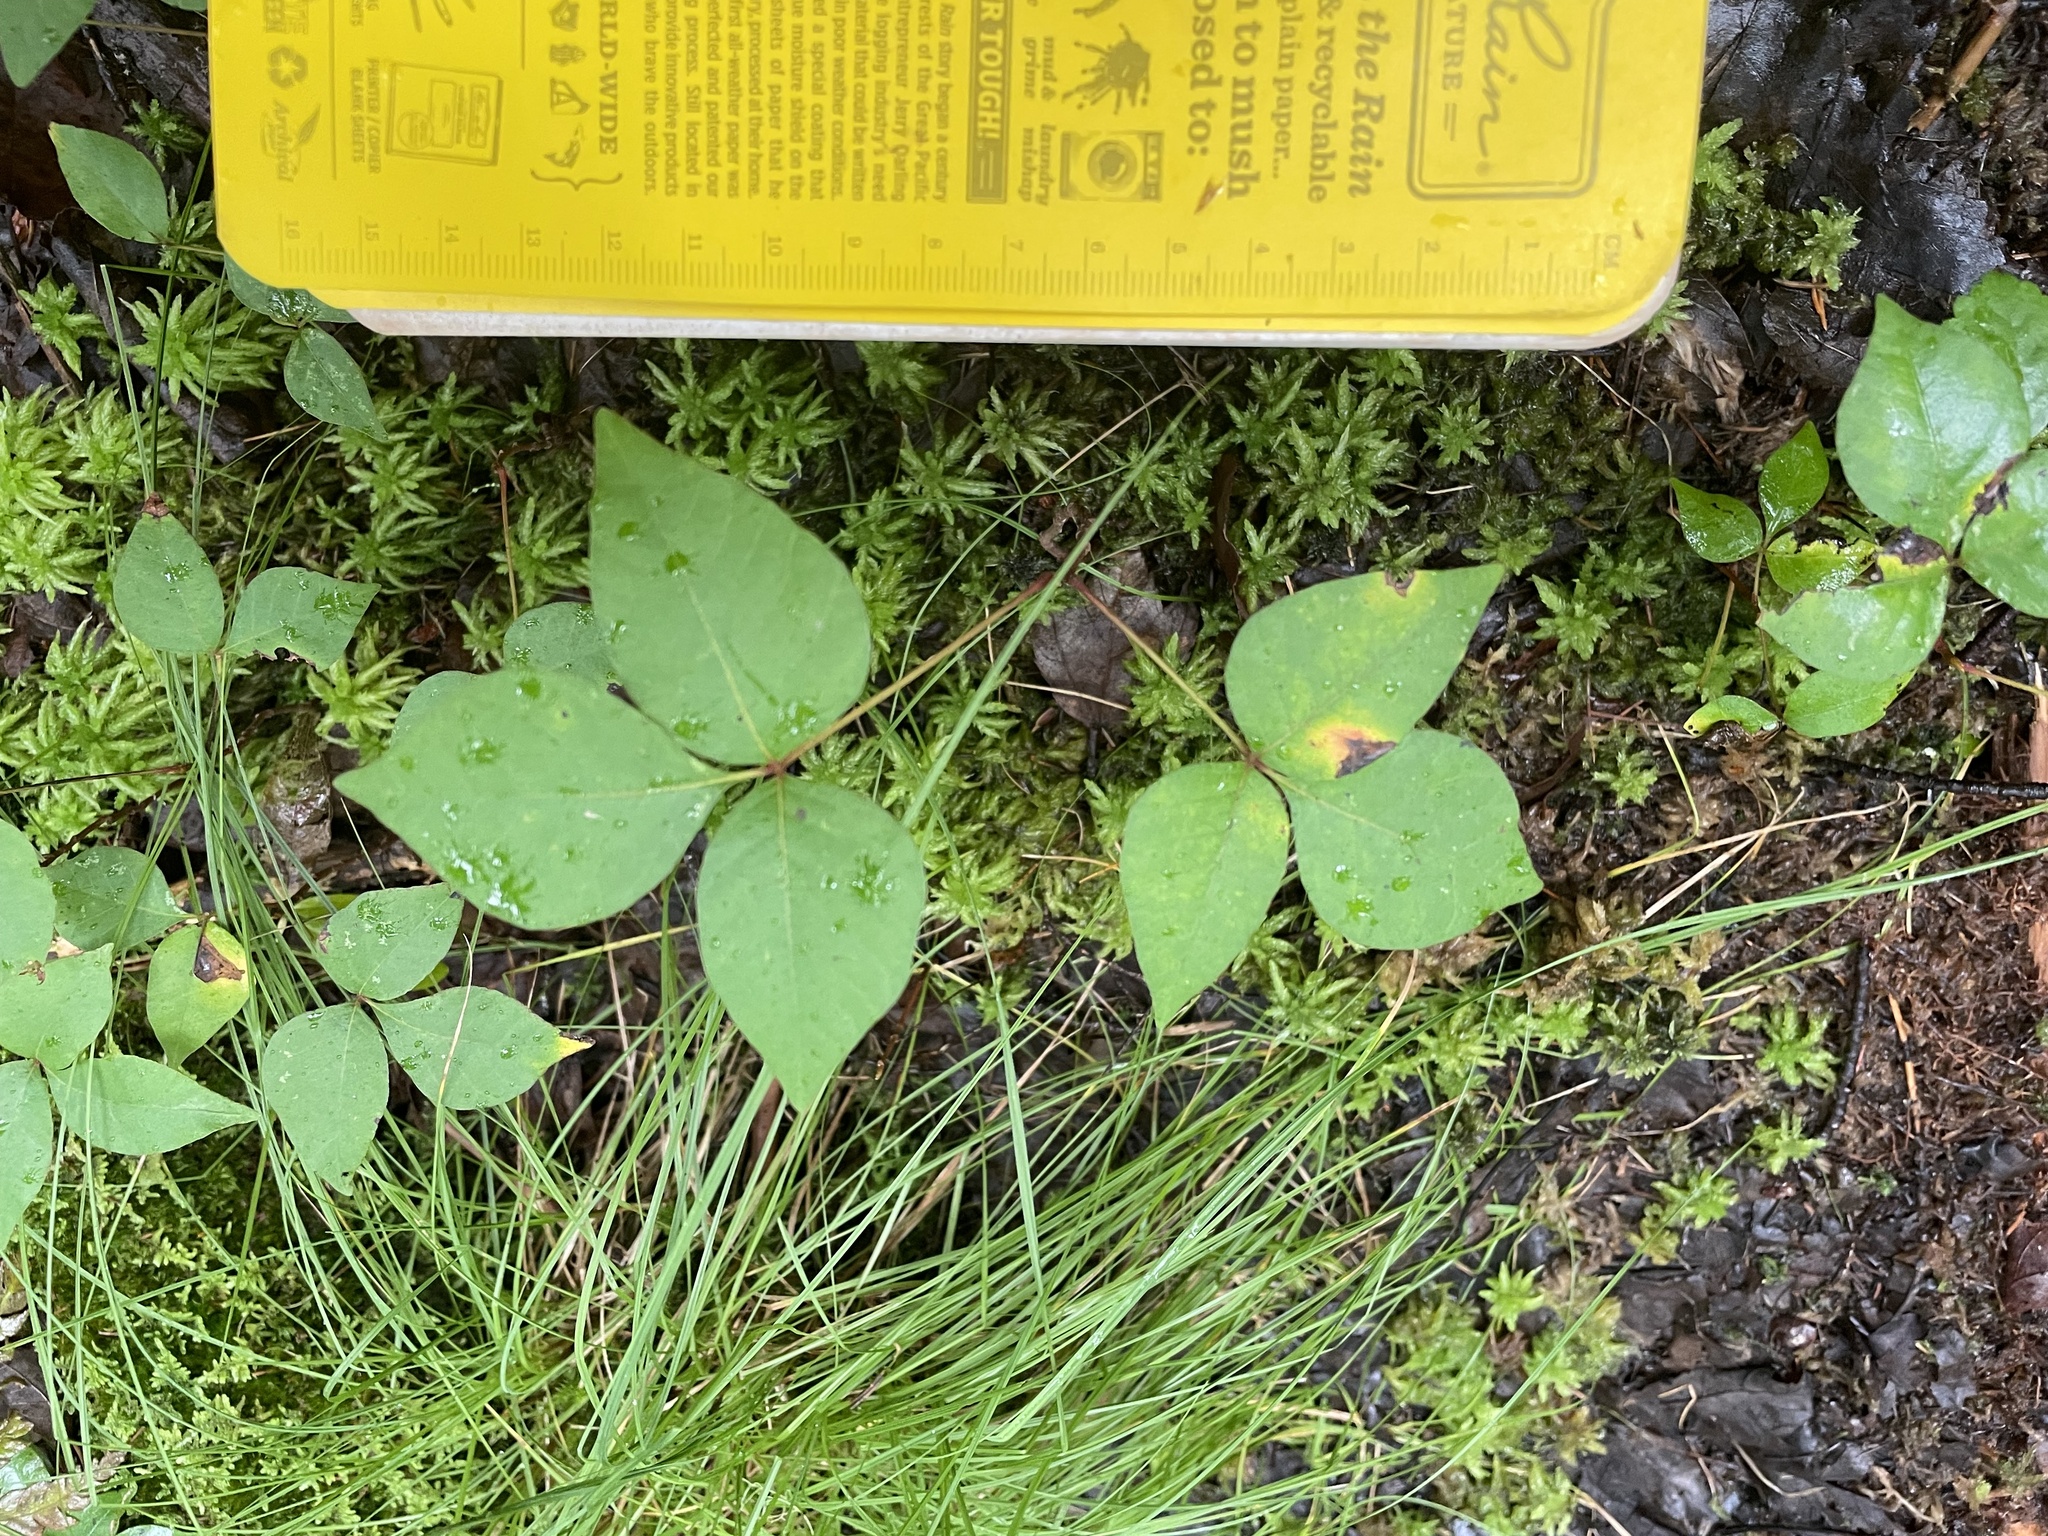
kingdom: Plantae
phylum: Tracheophyta
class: Magnoliopsida
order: Sapindales
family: Anacardiaceae
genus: Toxicodendron
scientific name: Toxicodendron radicans
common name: Poison ivy
